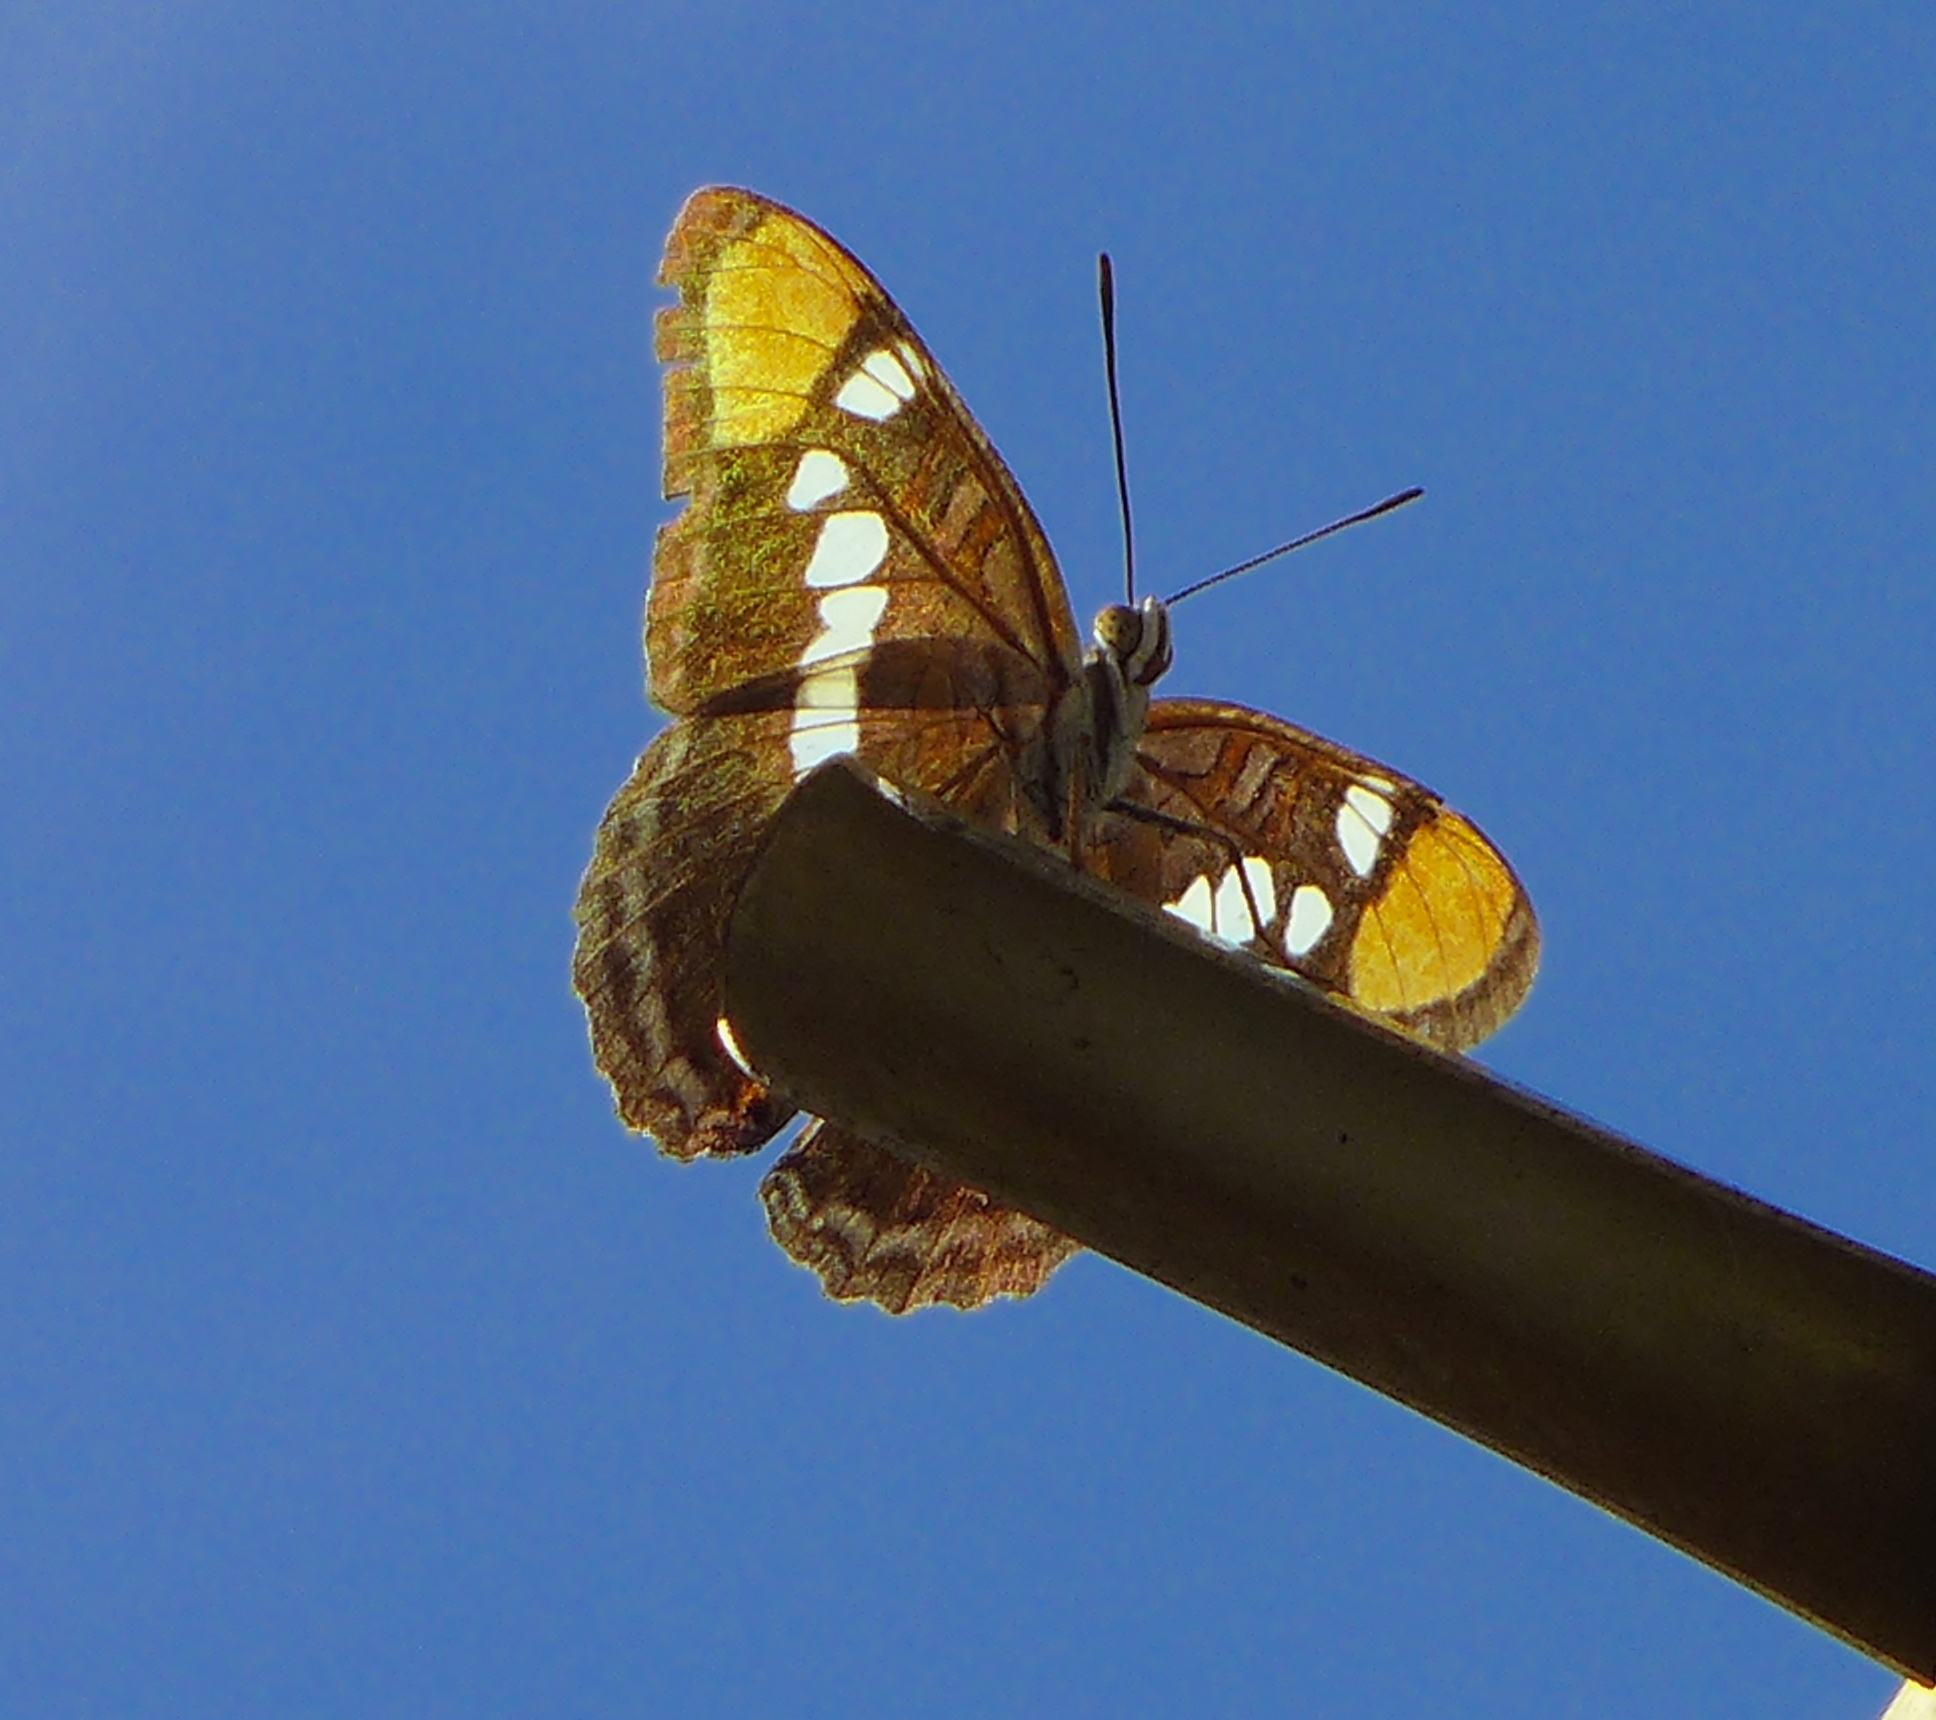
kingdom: Animalia
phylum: Arthropoda
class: Insecta
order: Lepidoptera
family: Nymphalidae
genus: Limenitis
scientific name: Limenitis bredowii
